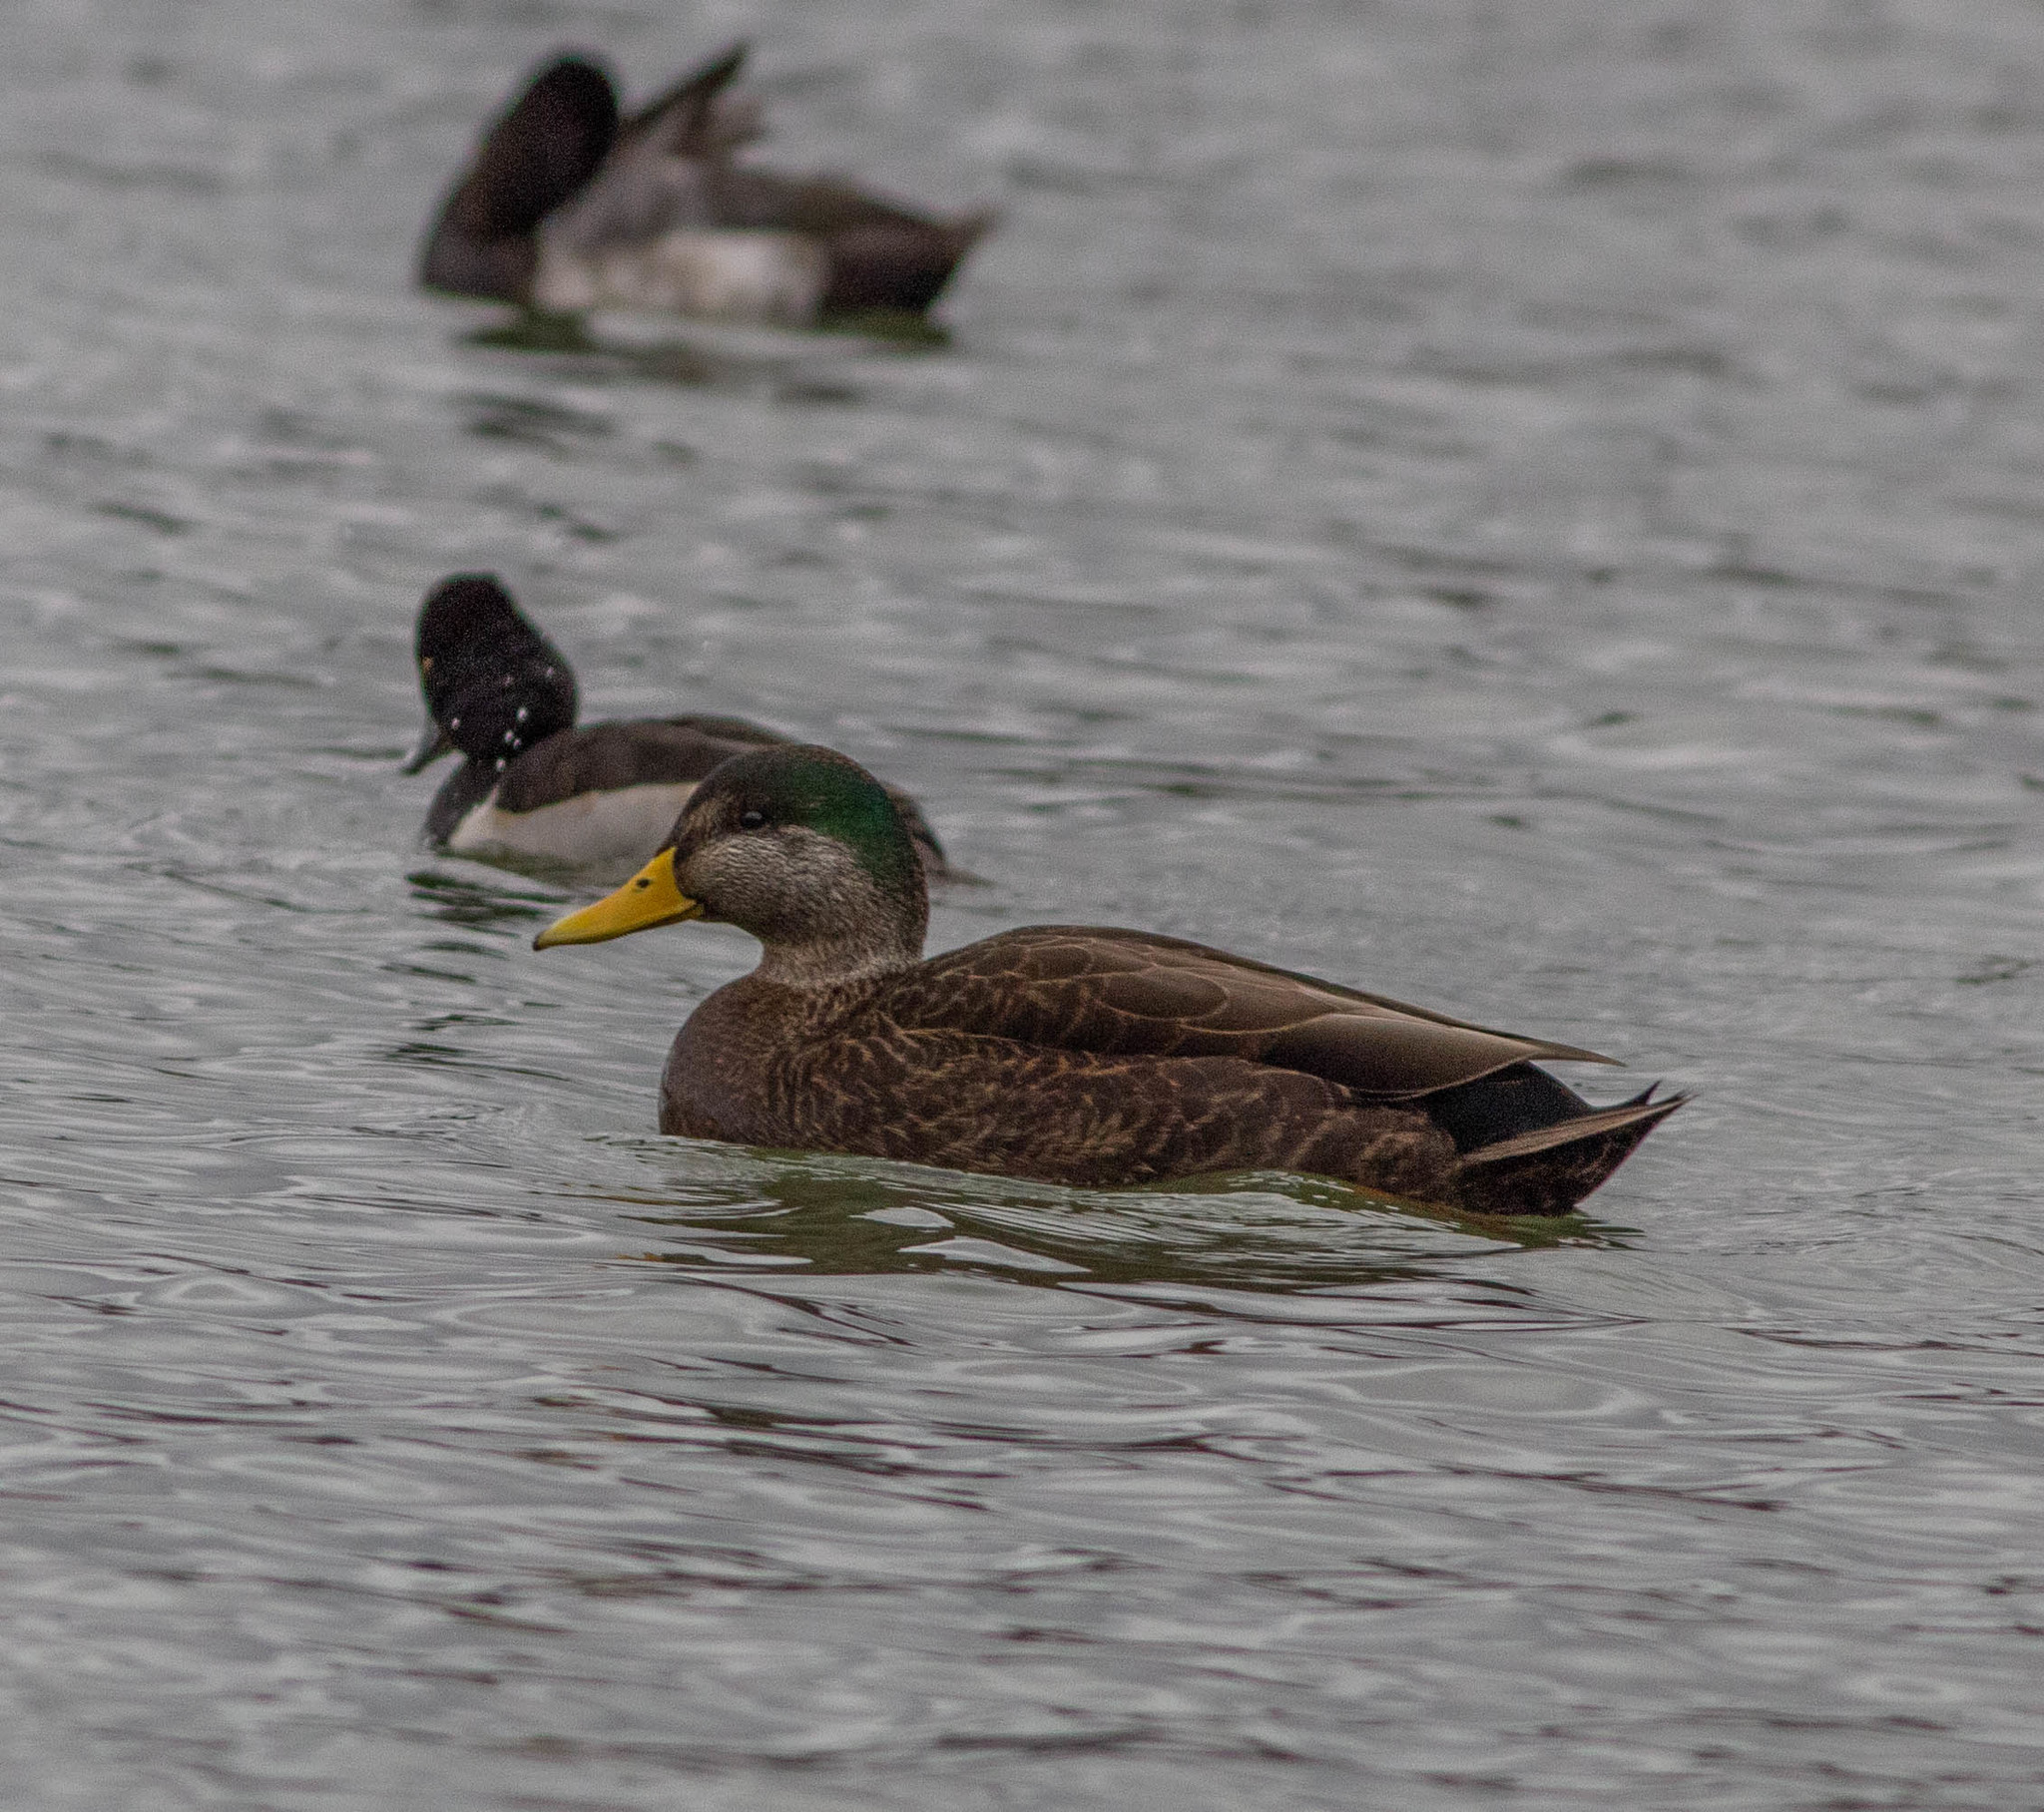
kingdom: Animalia
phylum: Chordata
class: Aves
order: Anseriformes
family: Anatidae
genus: Anas
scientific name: Anas
